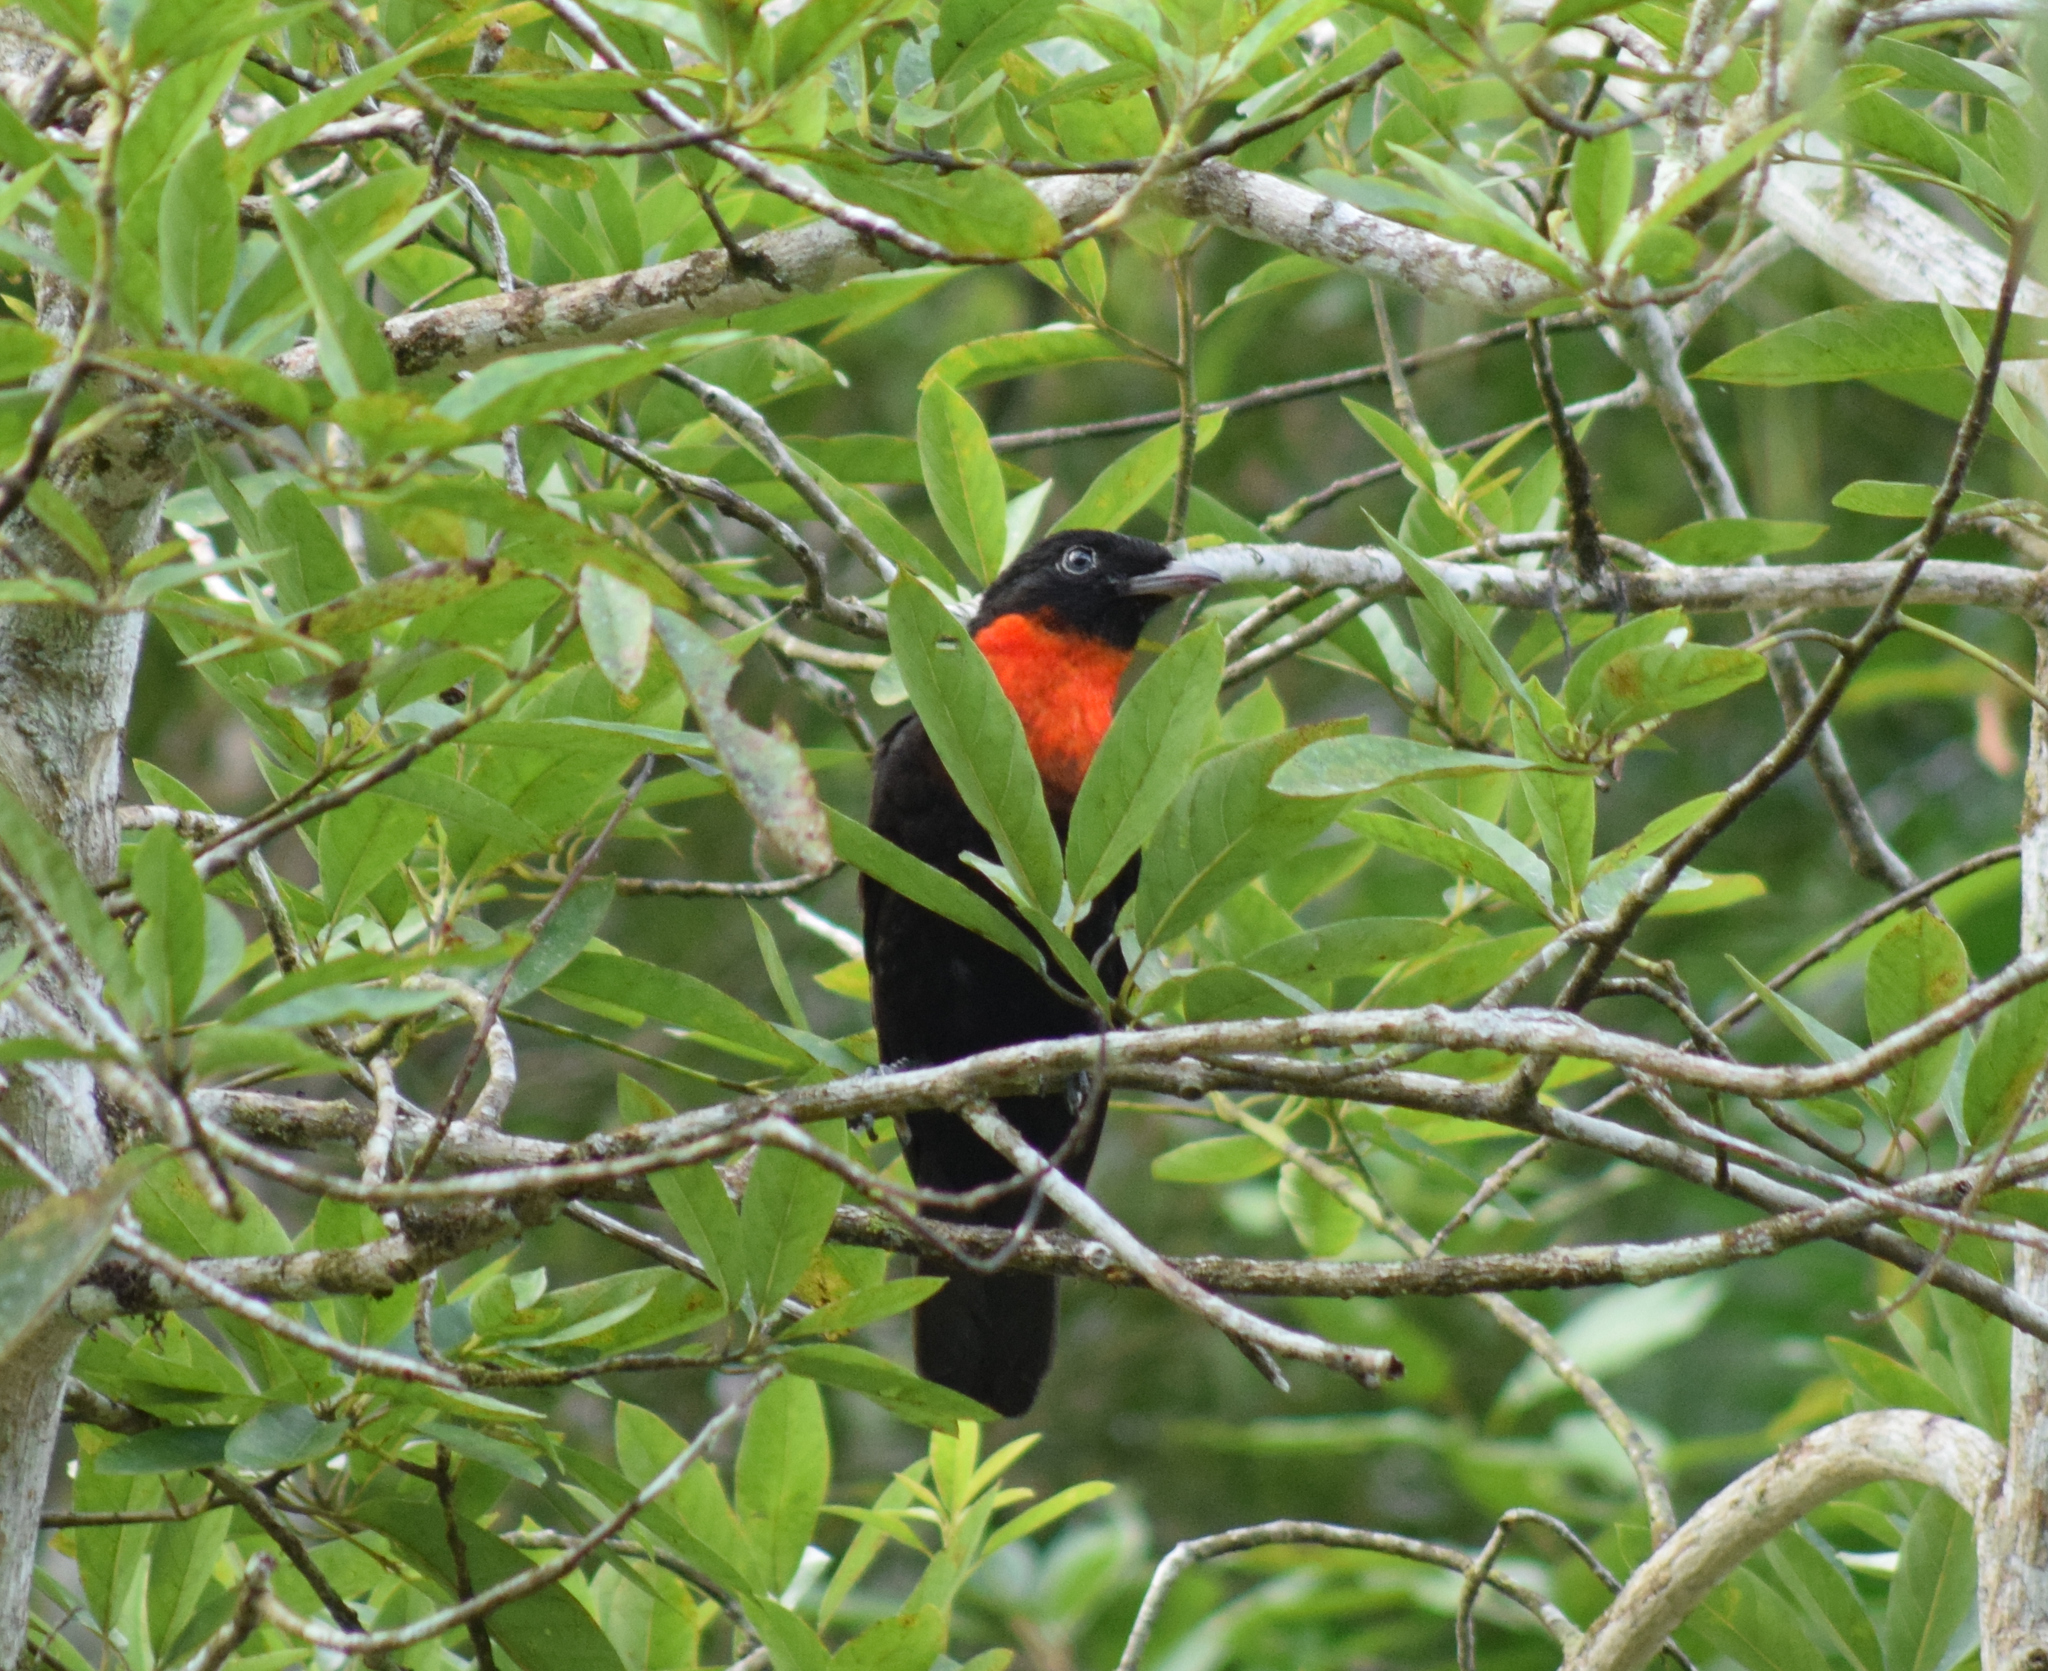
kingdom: Animalia
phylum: Chordata
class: Aves
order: Passeriformes
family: Cotingidae
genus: Pyroderus
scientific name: Pyroderus scutatus
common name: Red-ruffed fruitcrow
